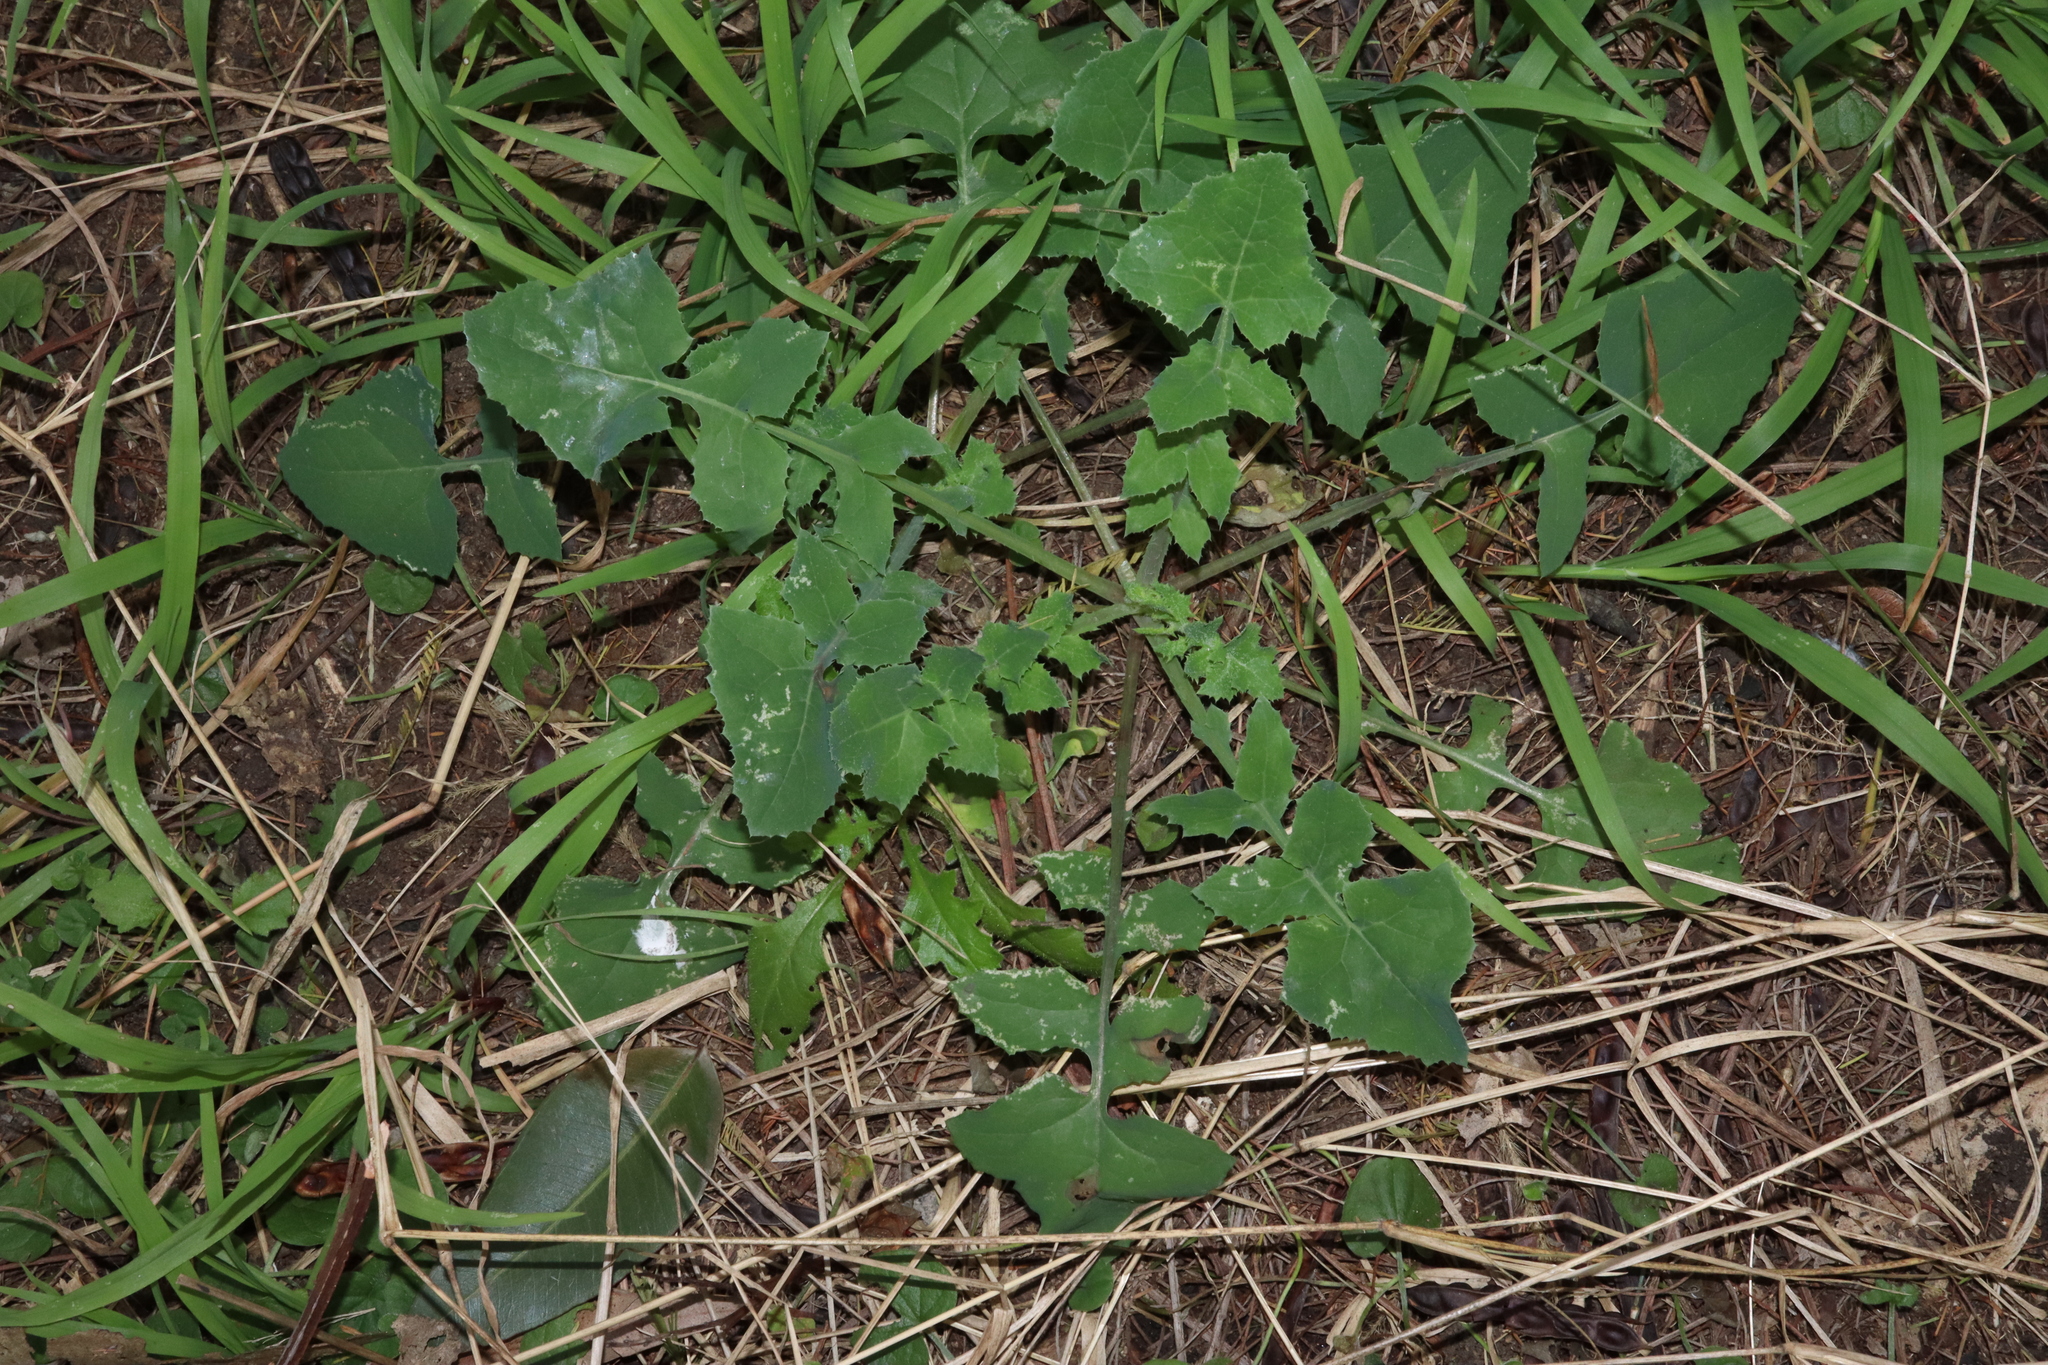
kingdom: Plantae
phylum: Tracheophyta
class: Magnoliopsida
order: Asterales
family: Asteraceae
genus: Sonchus
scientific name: Sonchus oleraceus
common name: Common sowthistle
